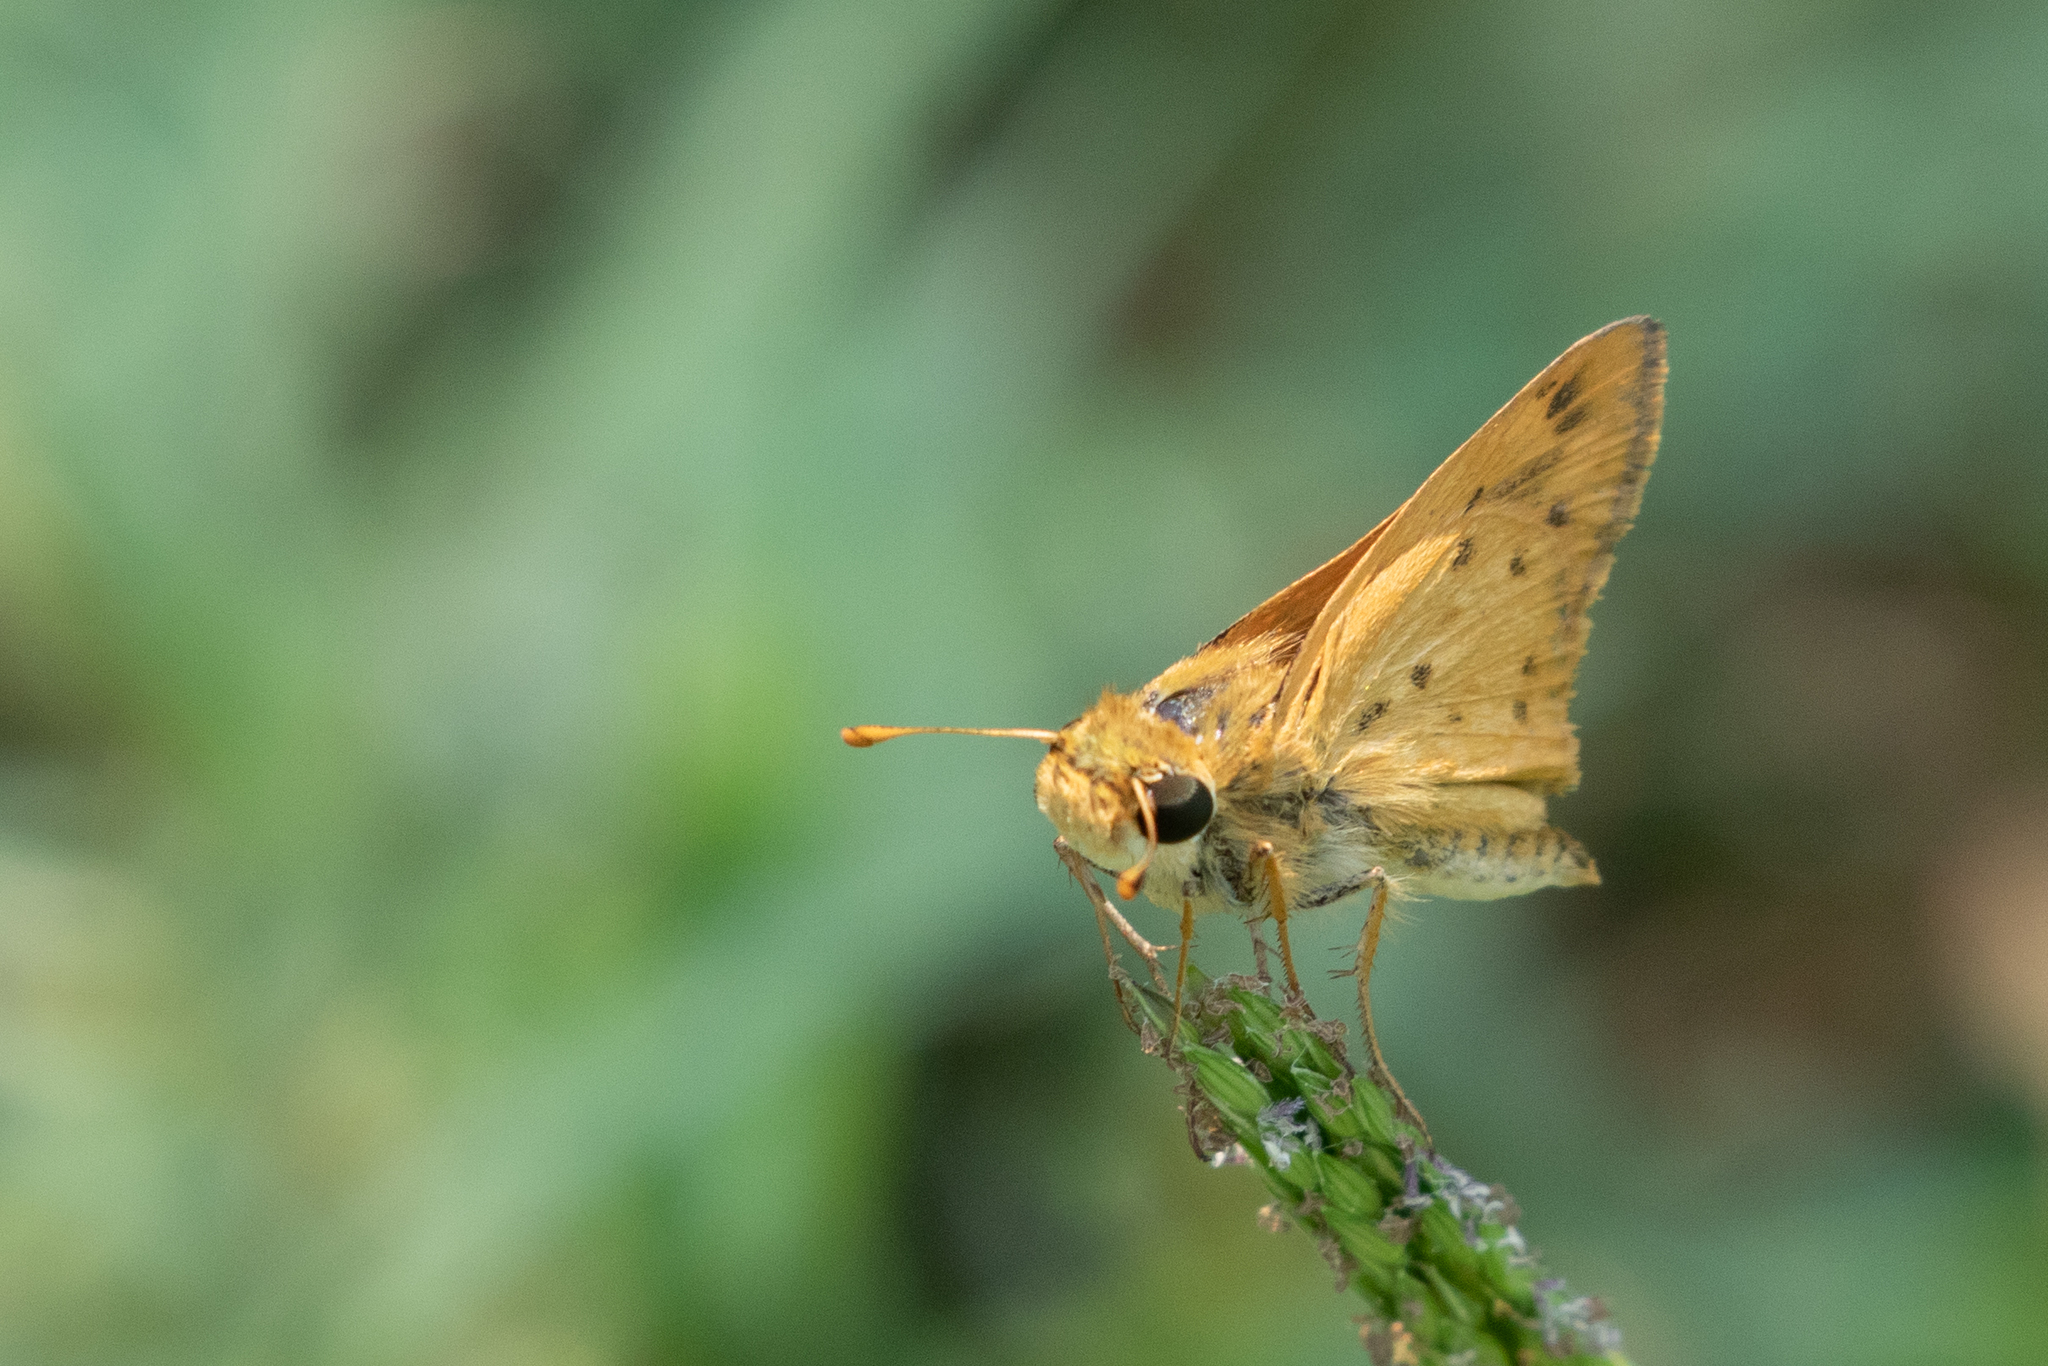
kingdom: Animalia
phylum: Arthropoda
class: Insecta
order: Lepidoptera
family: Hesperiidae
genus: Hylephila
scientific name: Hylephila phyleus
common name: Fiery skipper
